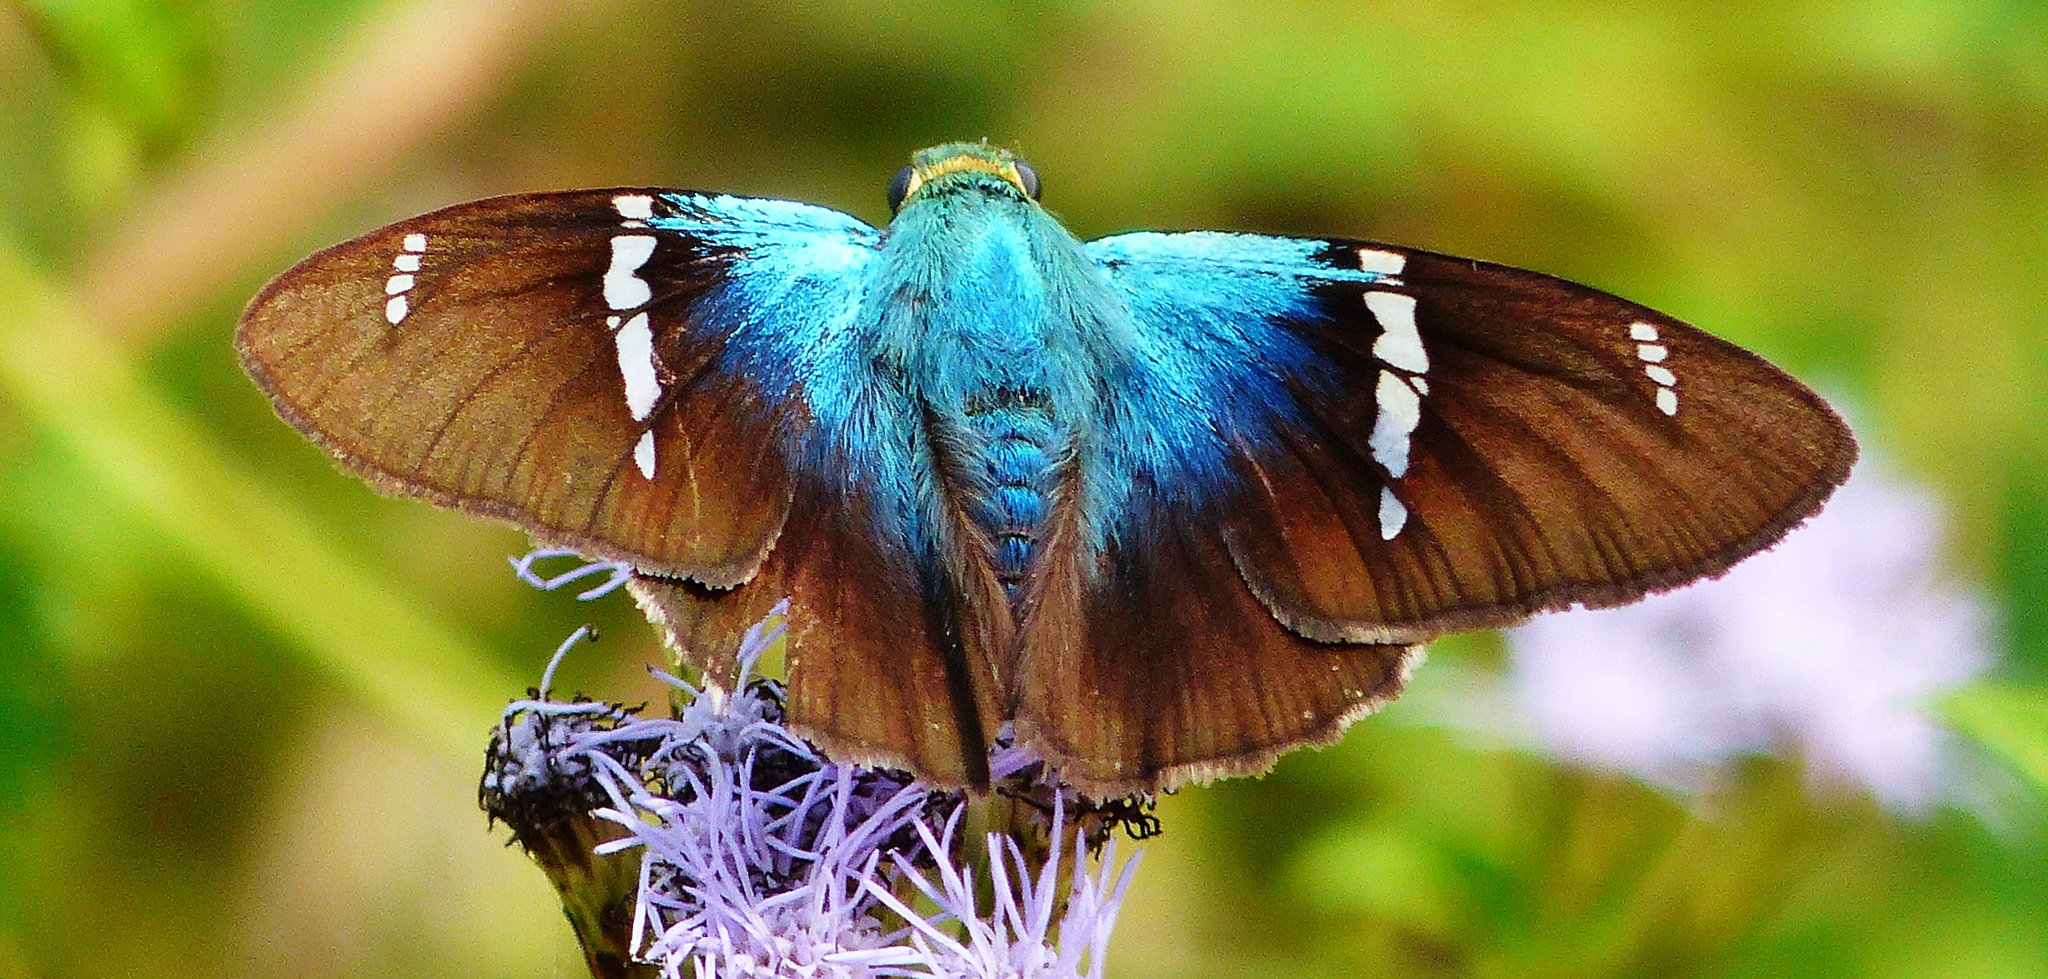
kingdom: Animalia
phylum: Arthropoda
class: Insecta
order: Lepidoptera
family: Hesperiidae
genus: Astraptes
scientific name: Astraptes fulgerator
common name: Two-barred flasher
